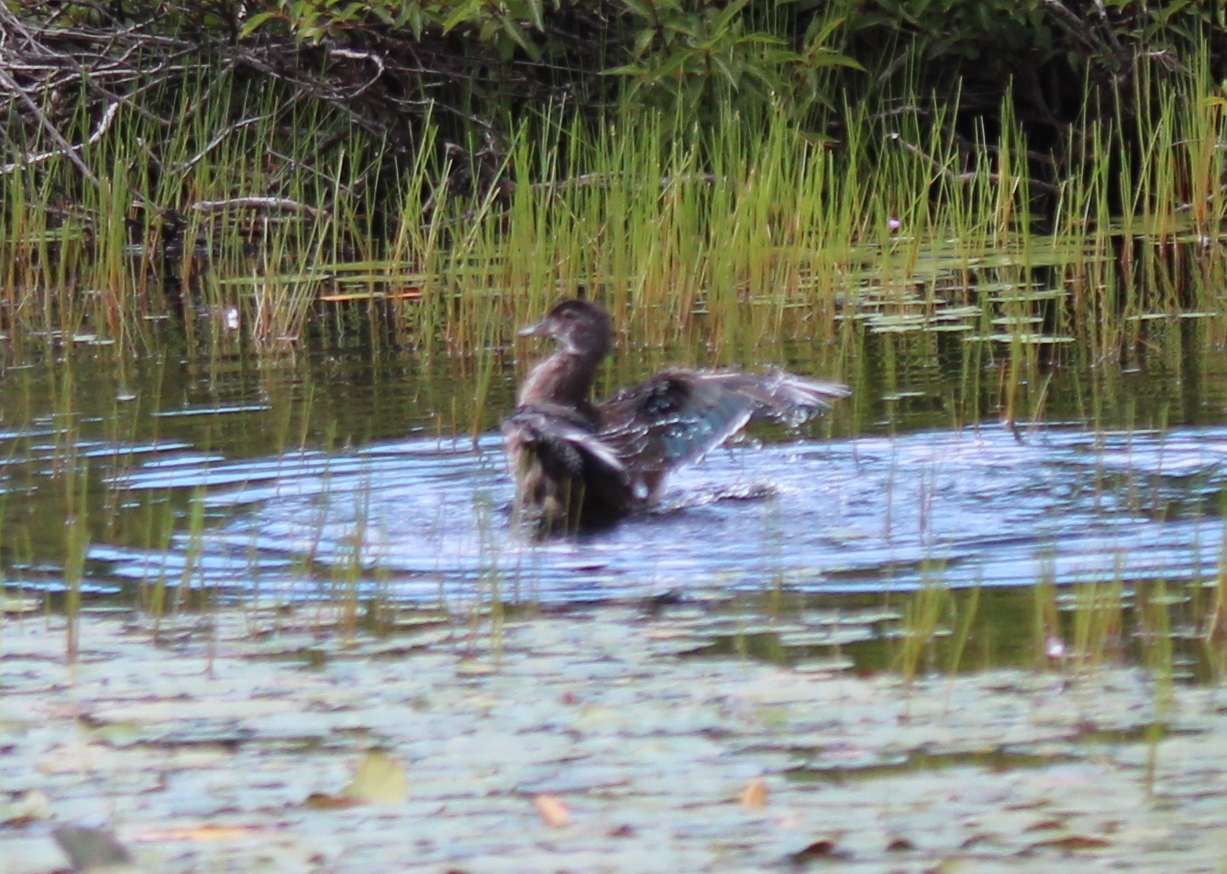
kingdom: Animalia
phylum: Chordata
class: Aves
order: Anseriformes
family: Anatidae
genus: Aix
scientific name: Aix sponsa
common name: Wood duck
